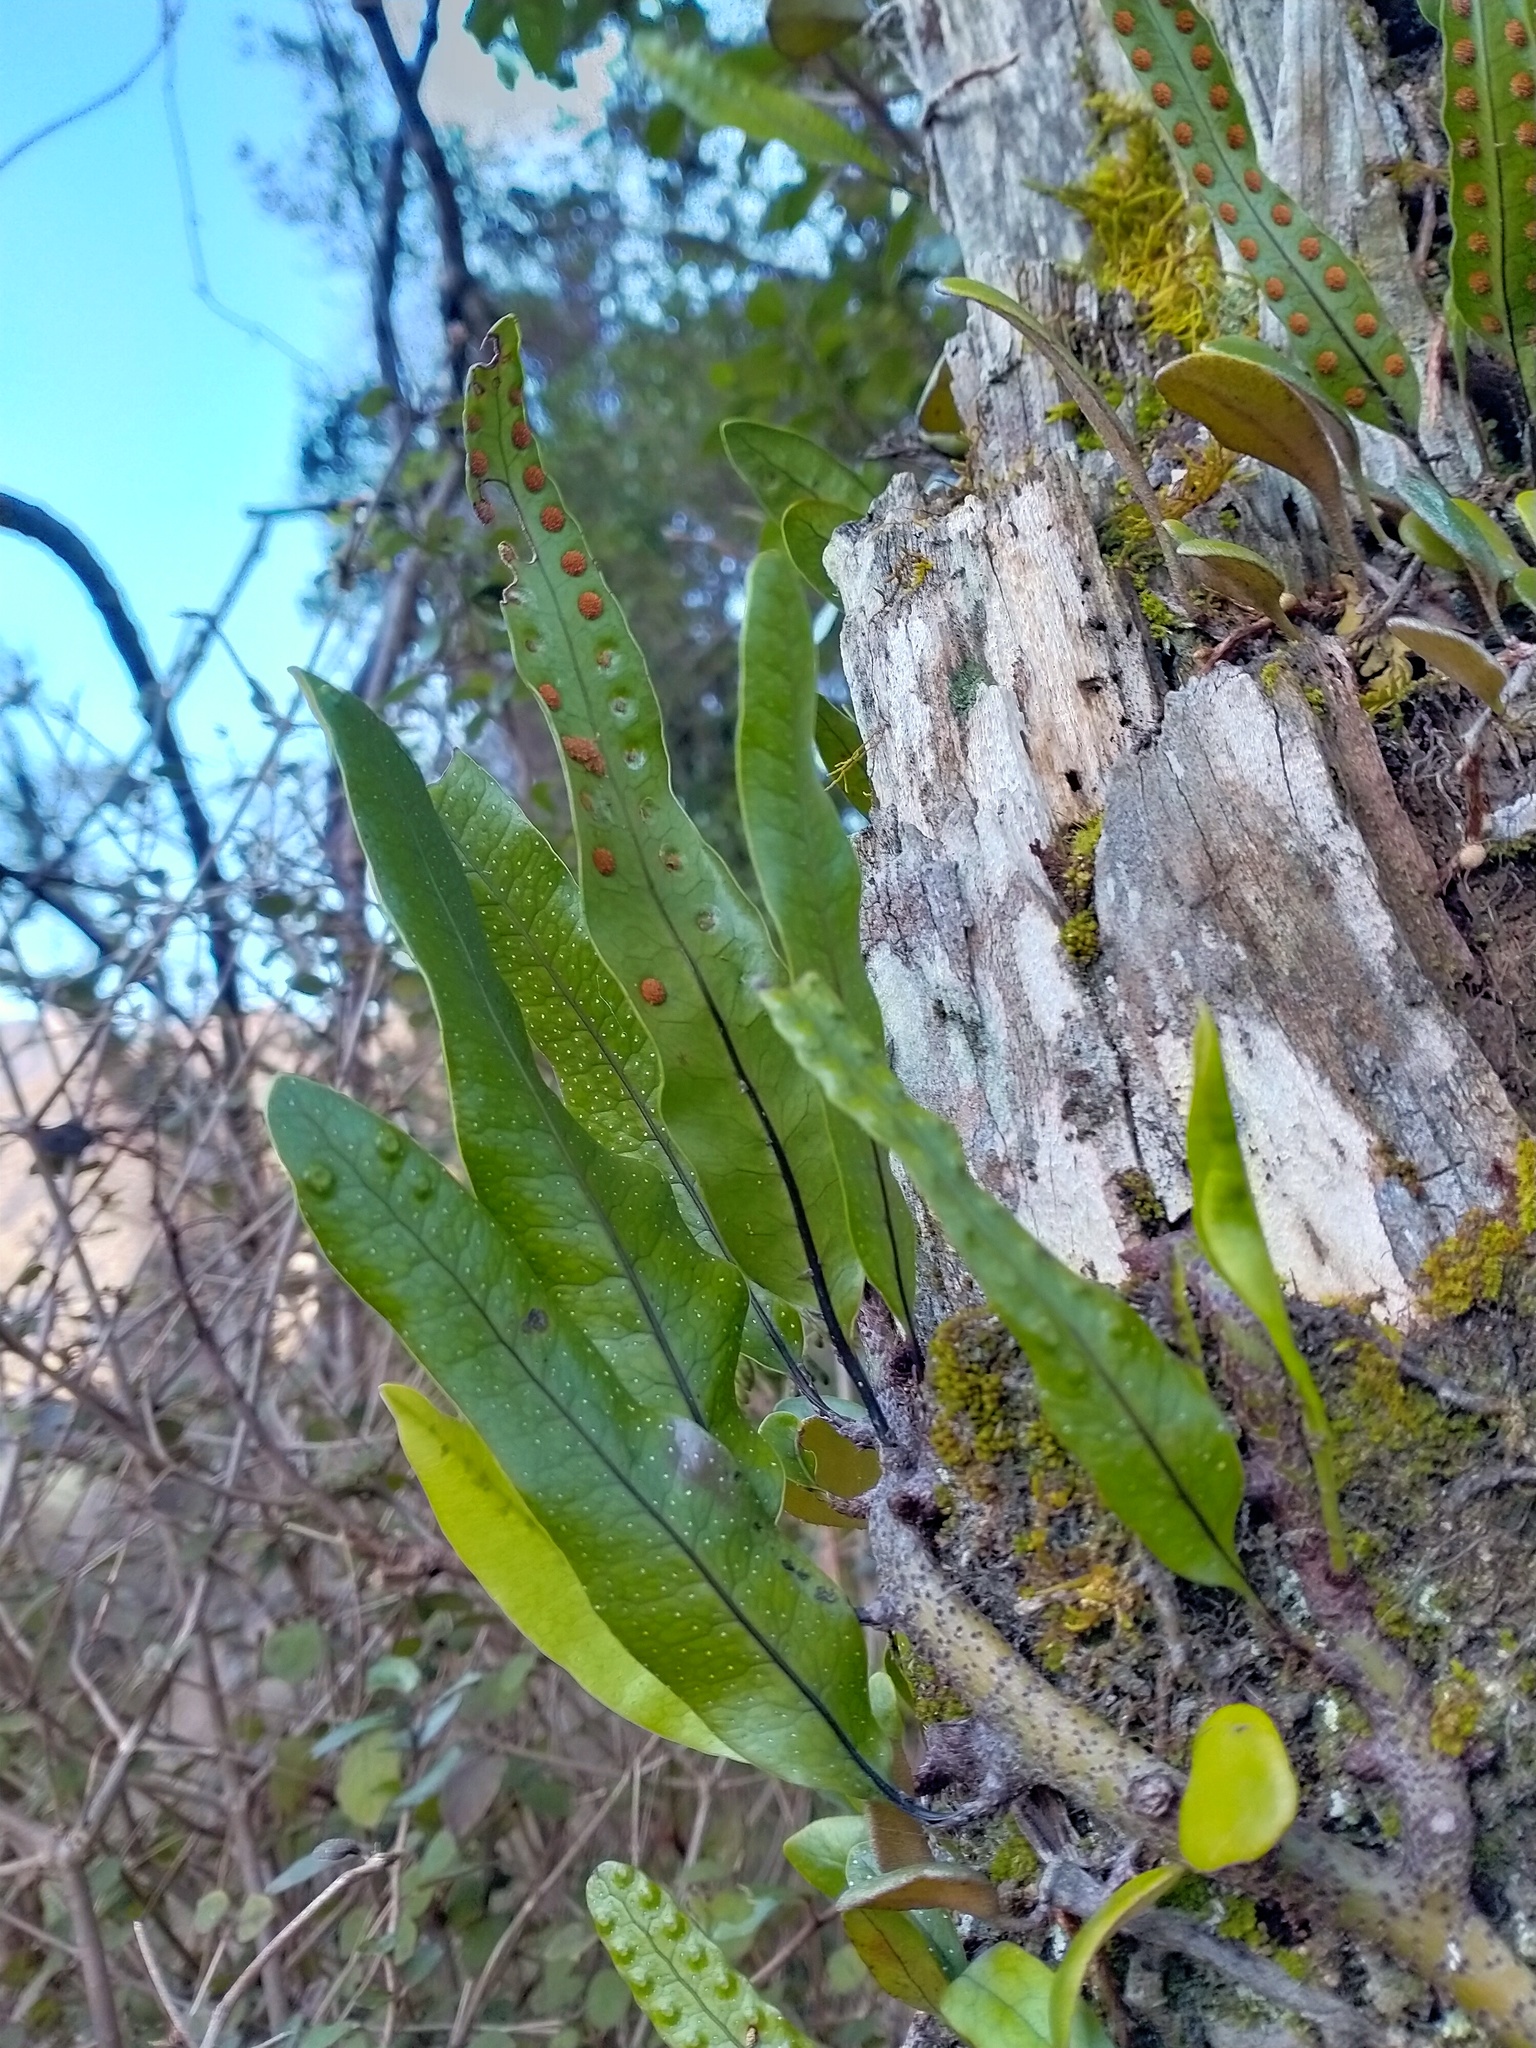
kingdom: Plantae
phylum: Tracheophyta
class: Polypodiopsida
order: Polypodiales
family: Polypodiaceae
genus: Lecanopteris
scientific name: Lecanopteris pustulata
